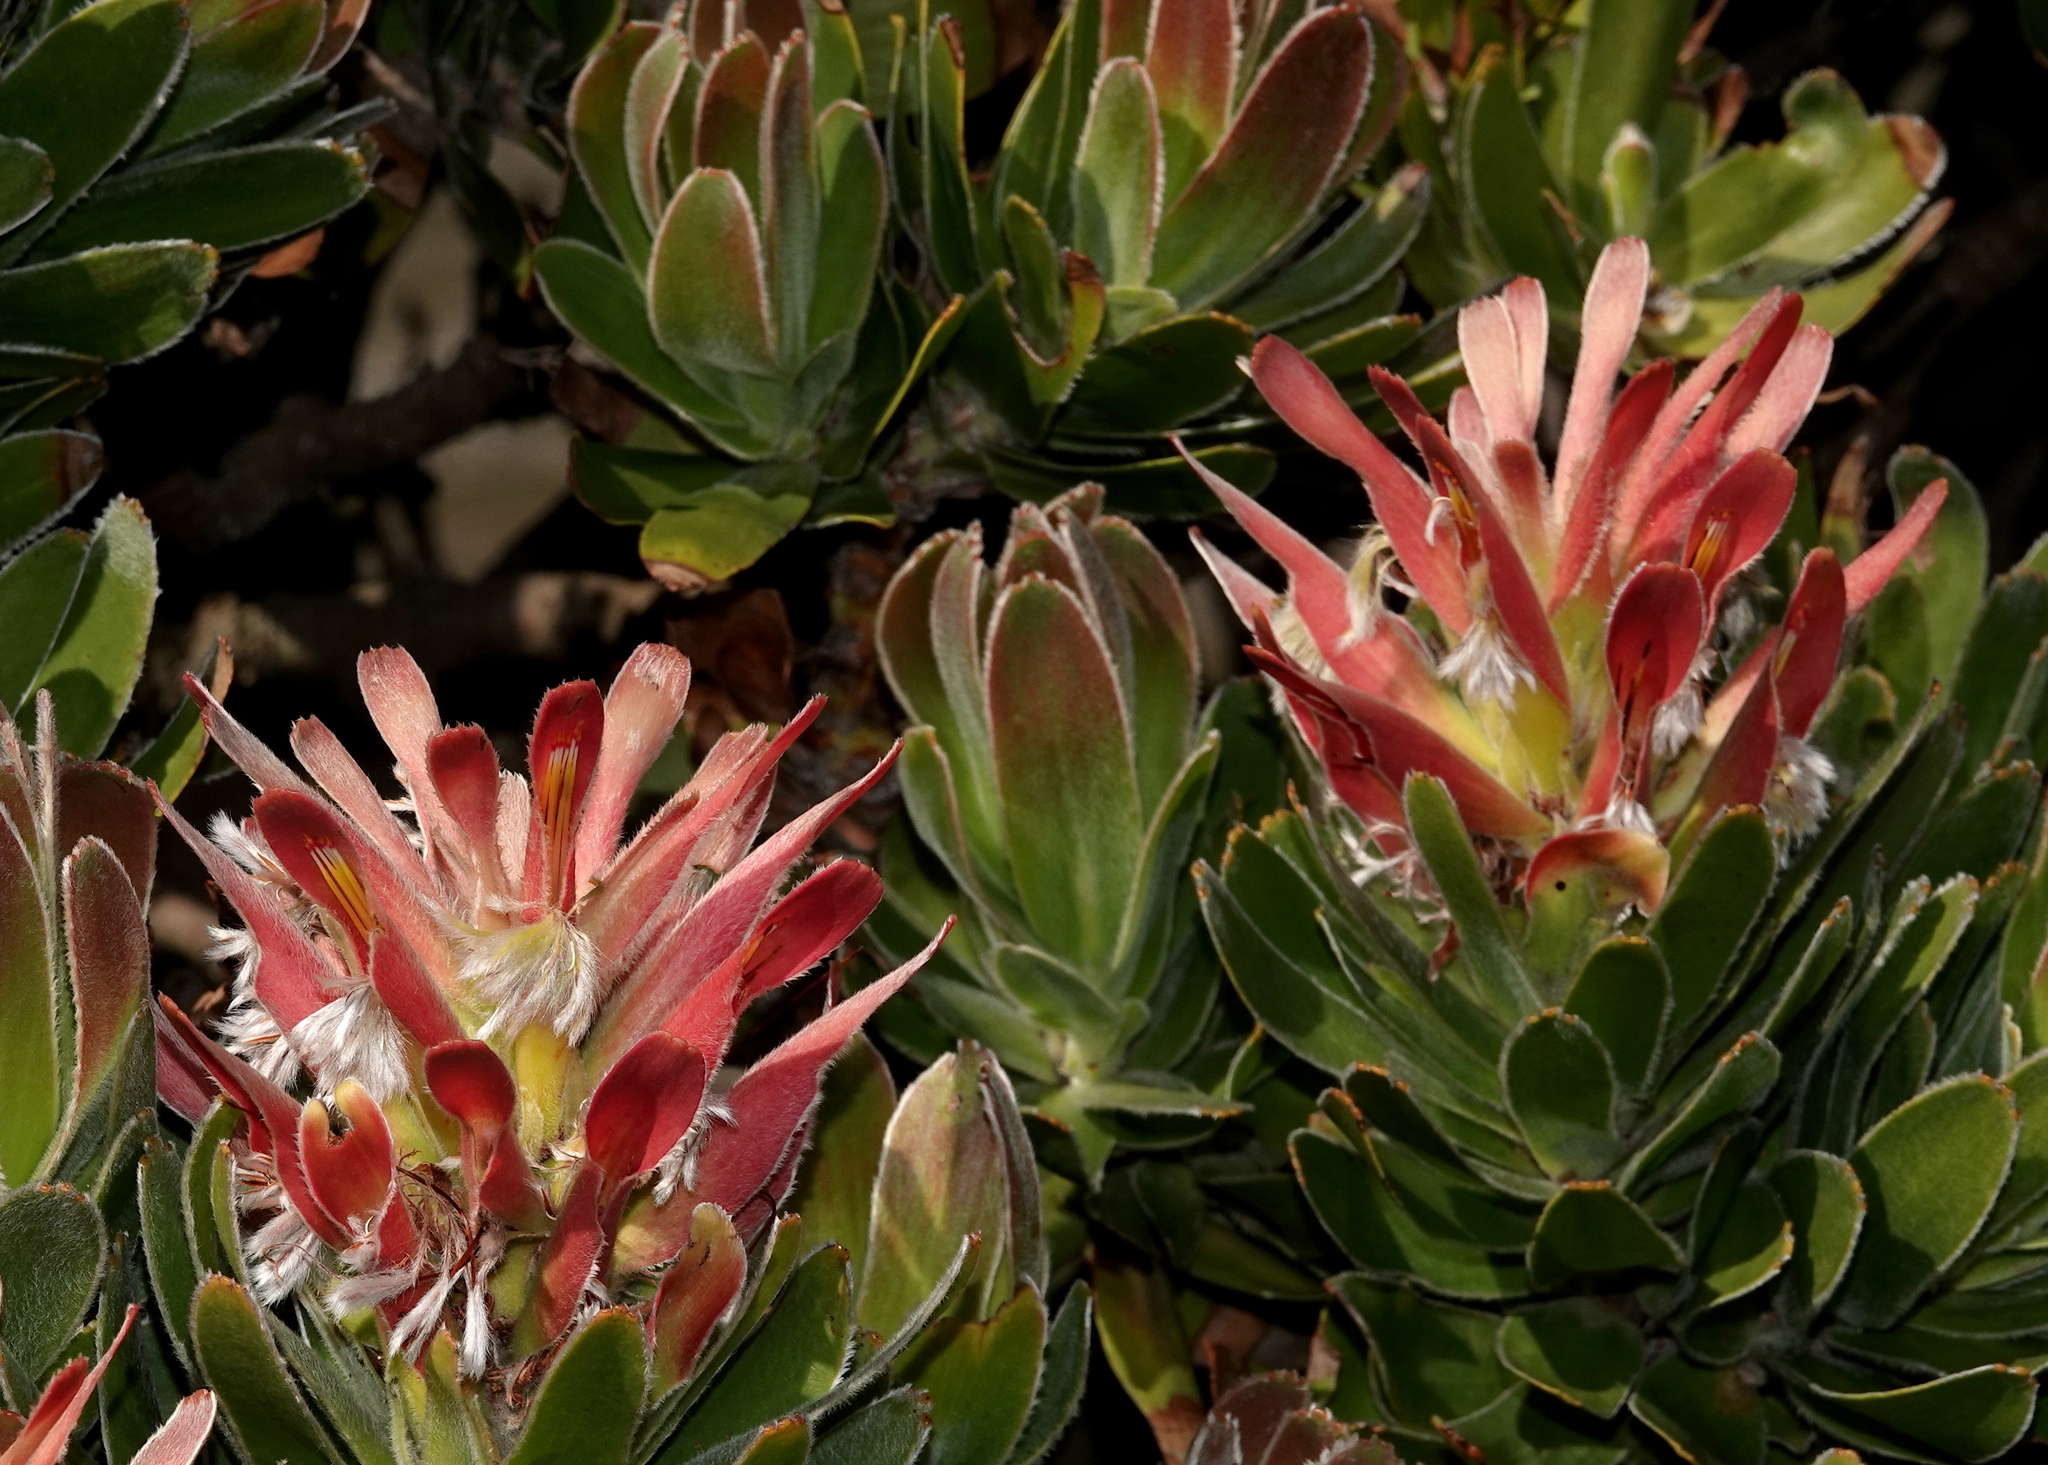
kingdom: Plantae
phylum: Tracheophyta
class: Magnoliopsida
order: Proteales
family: Proteaceae
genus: Mimetes
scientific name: Mimetes fimbriifolius
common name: Fringed bottlebrush
